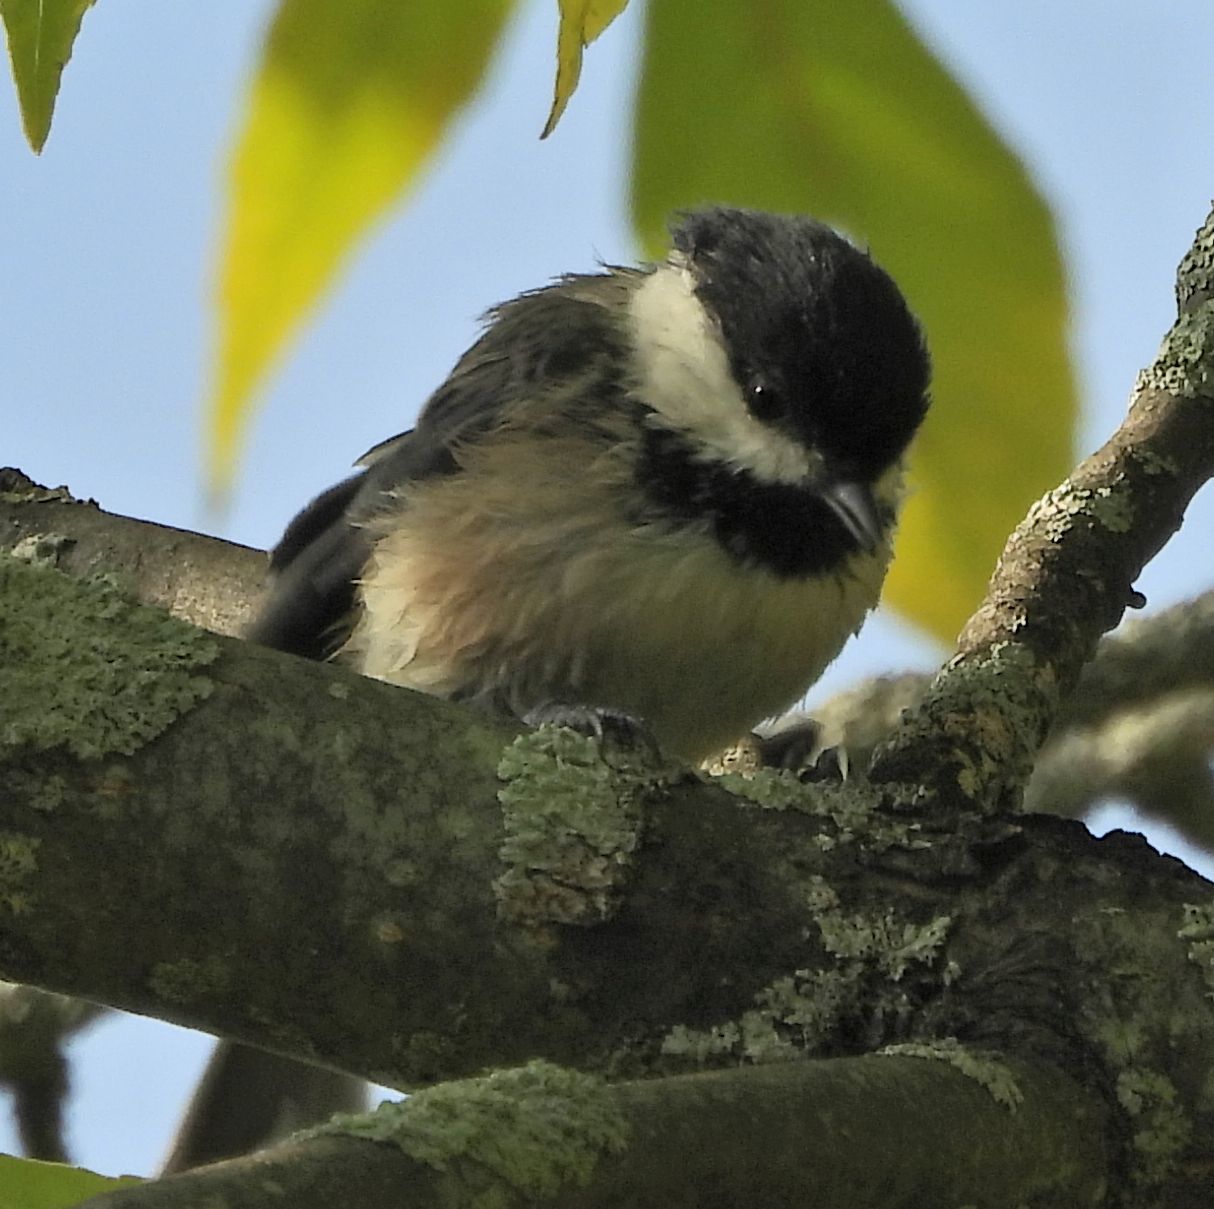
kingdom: Animalia
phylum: Chordata
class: Aves
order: Passeriformes
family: Paridae
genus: Poecile
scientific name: Poecile atricapillus
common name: Black-capped chickadee
